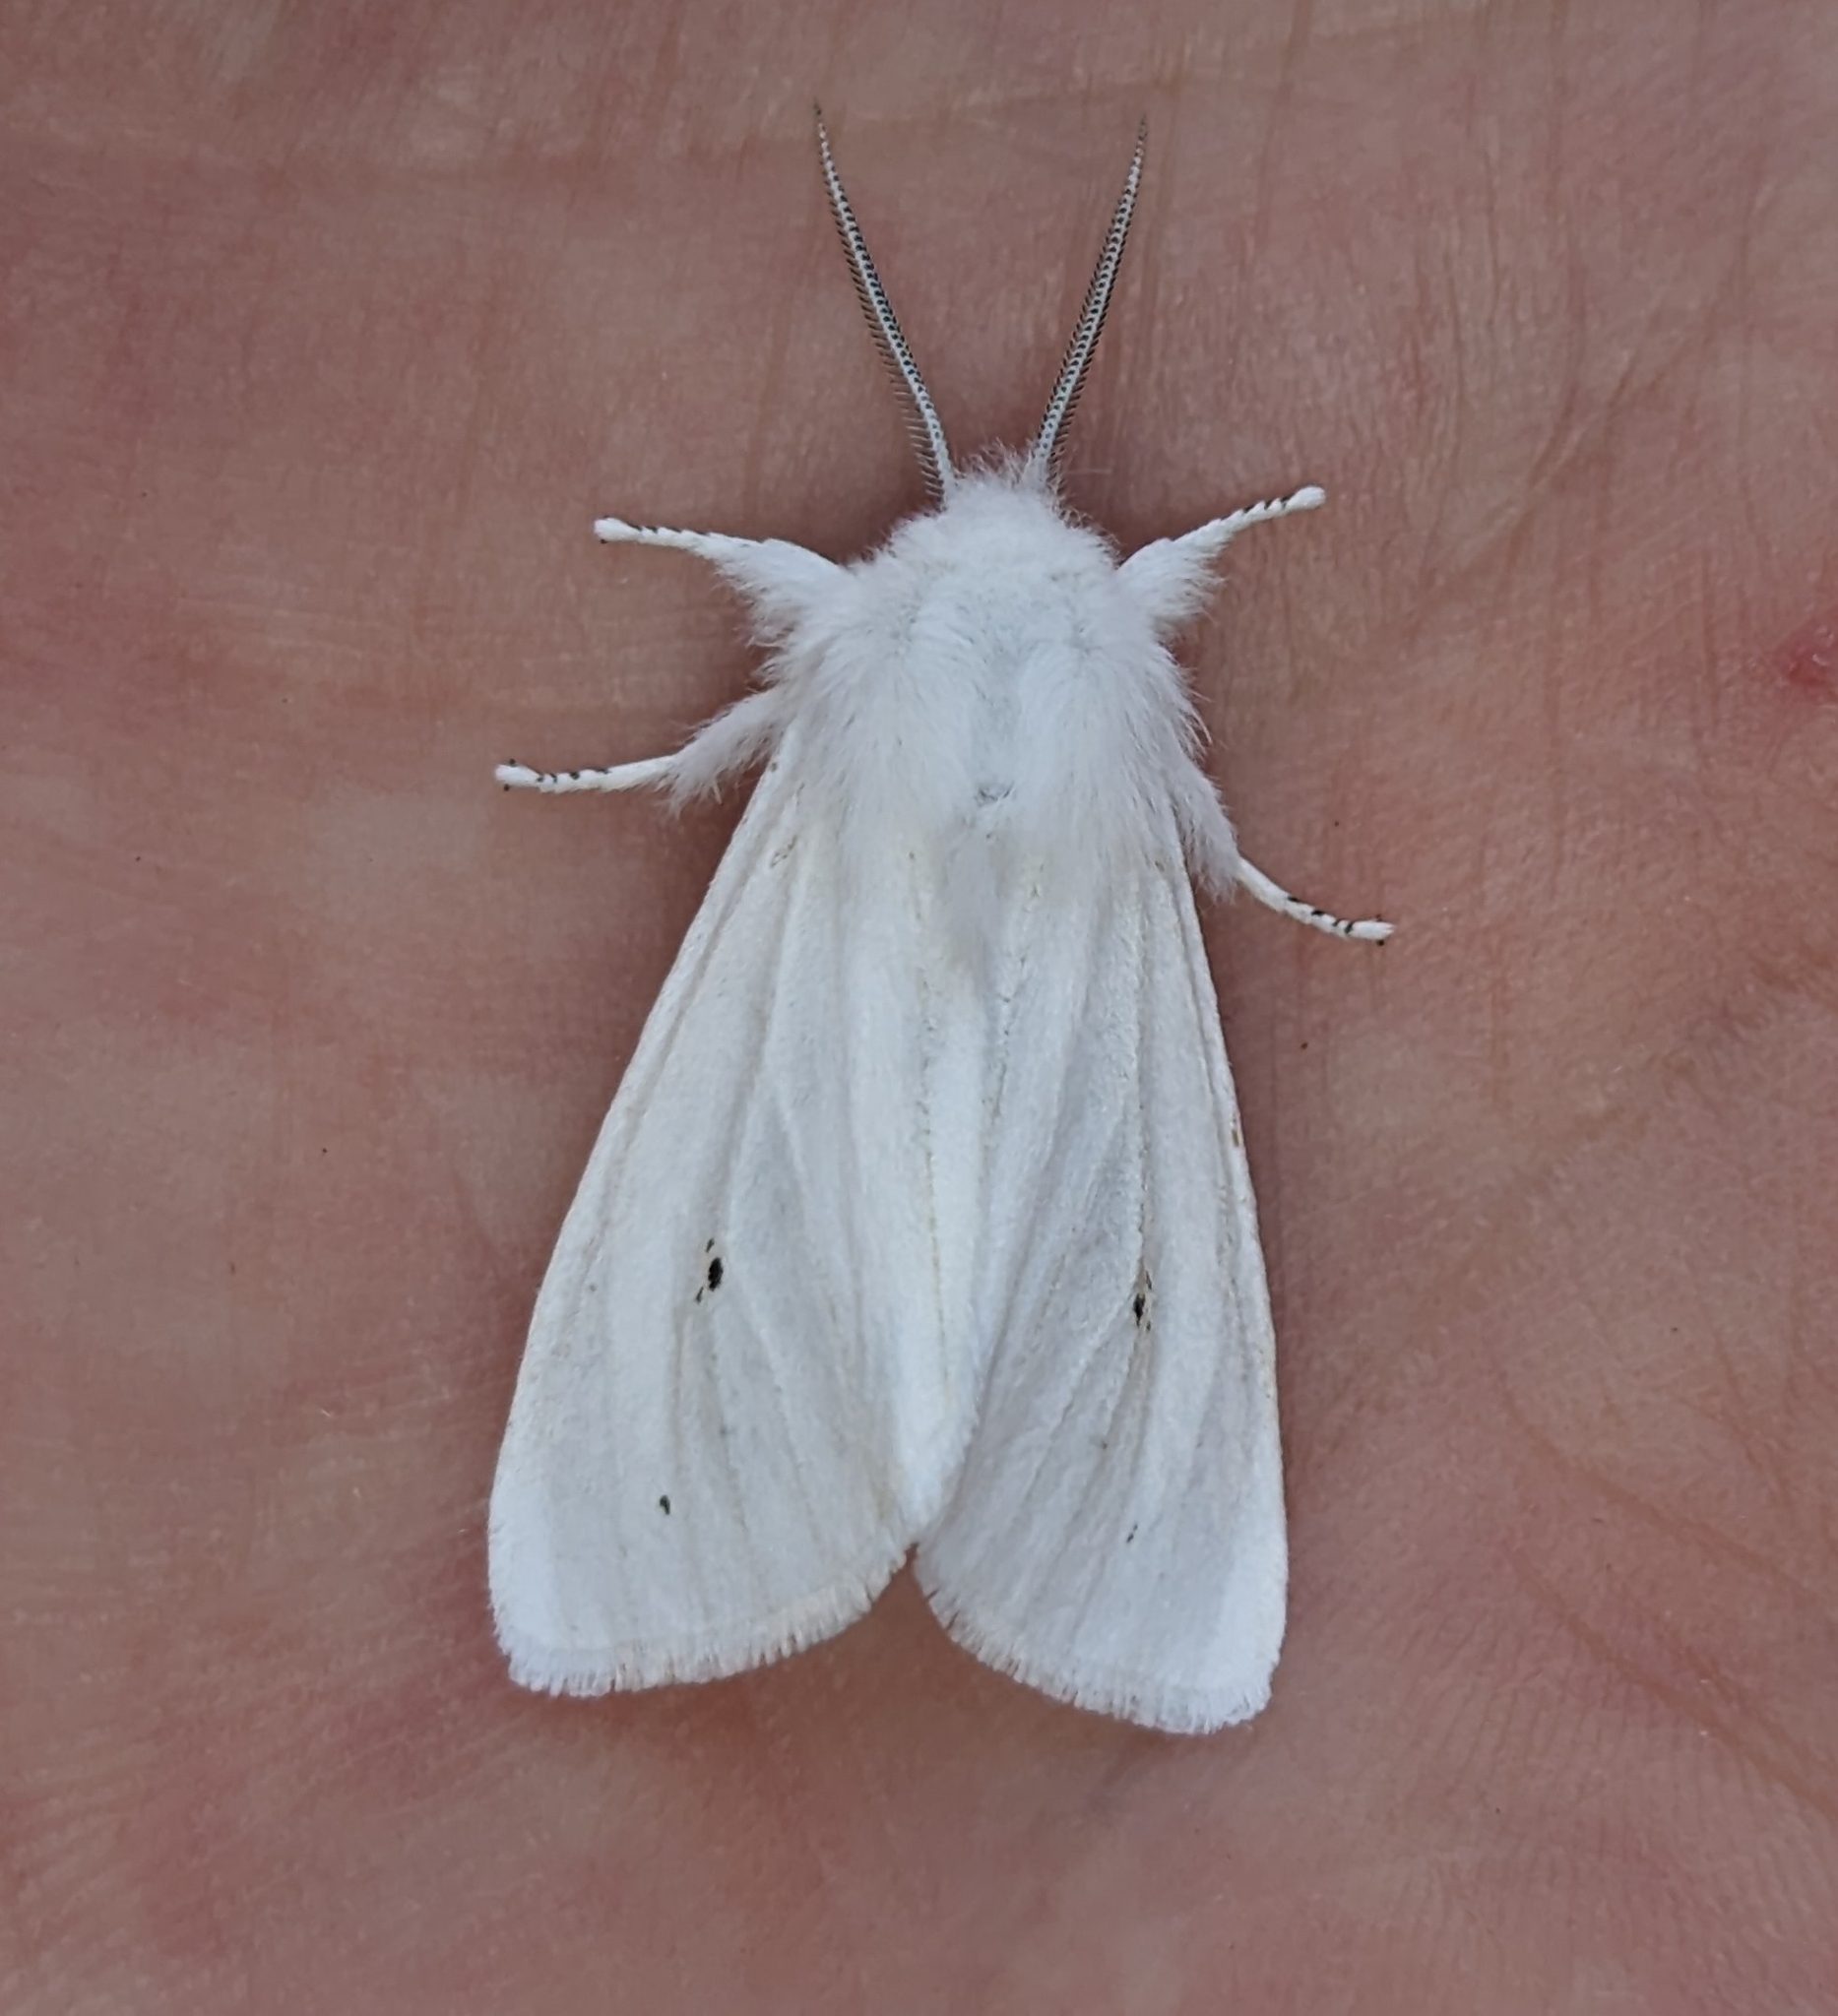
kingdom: Animalia
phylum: Arthropoda
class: Insecta
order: Lepidoptera
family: Erebidae
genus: Spilosoma
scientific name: Spilosoma virginica
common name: Virginia tiger moth
